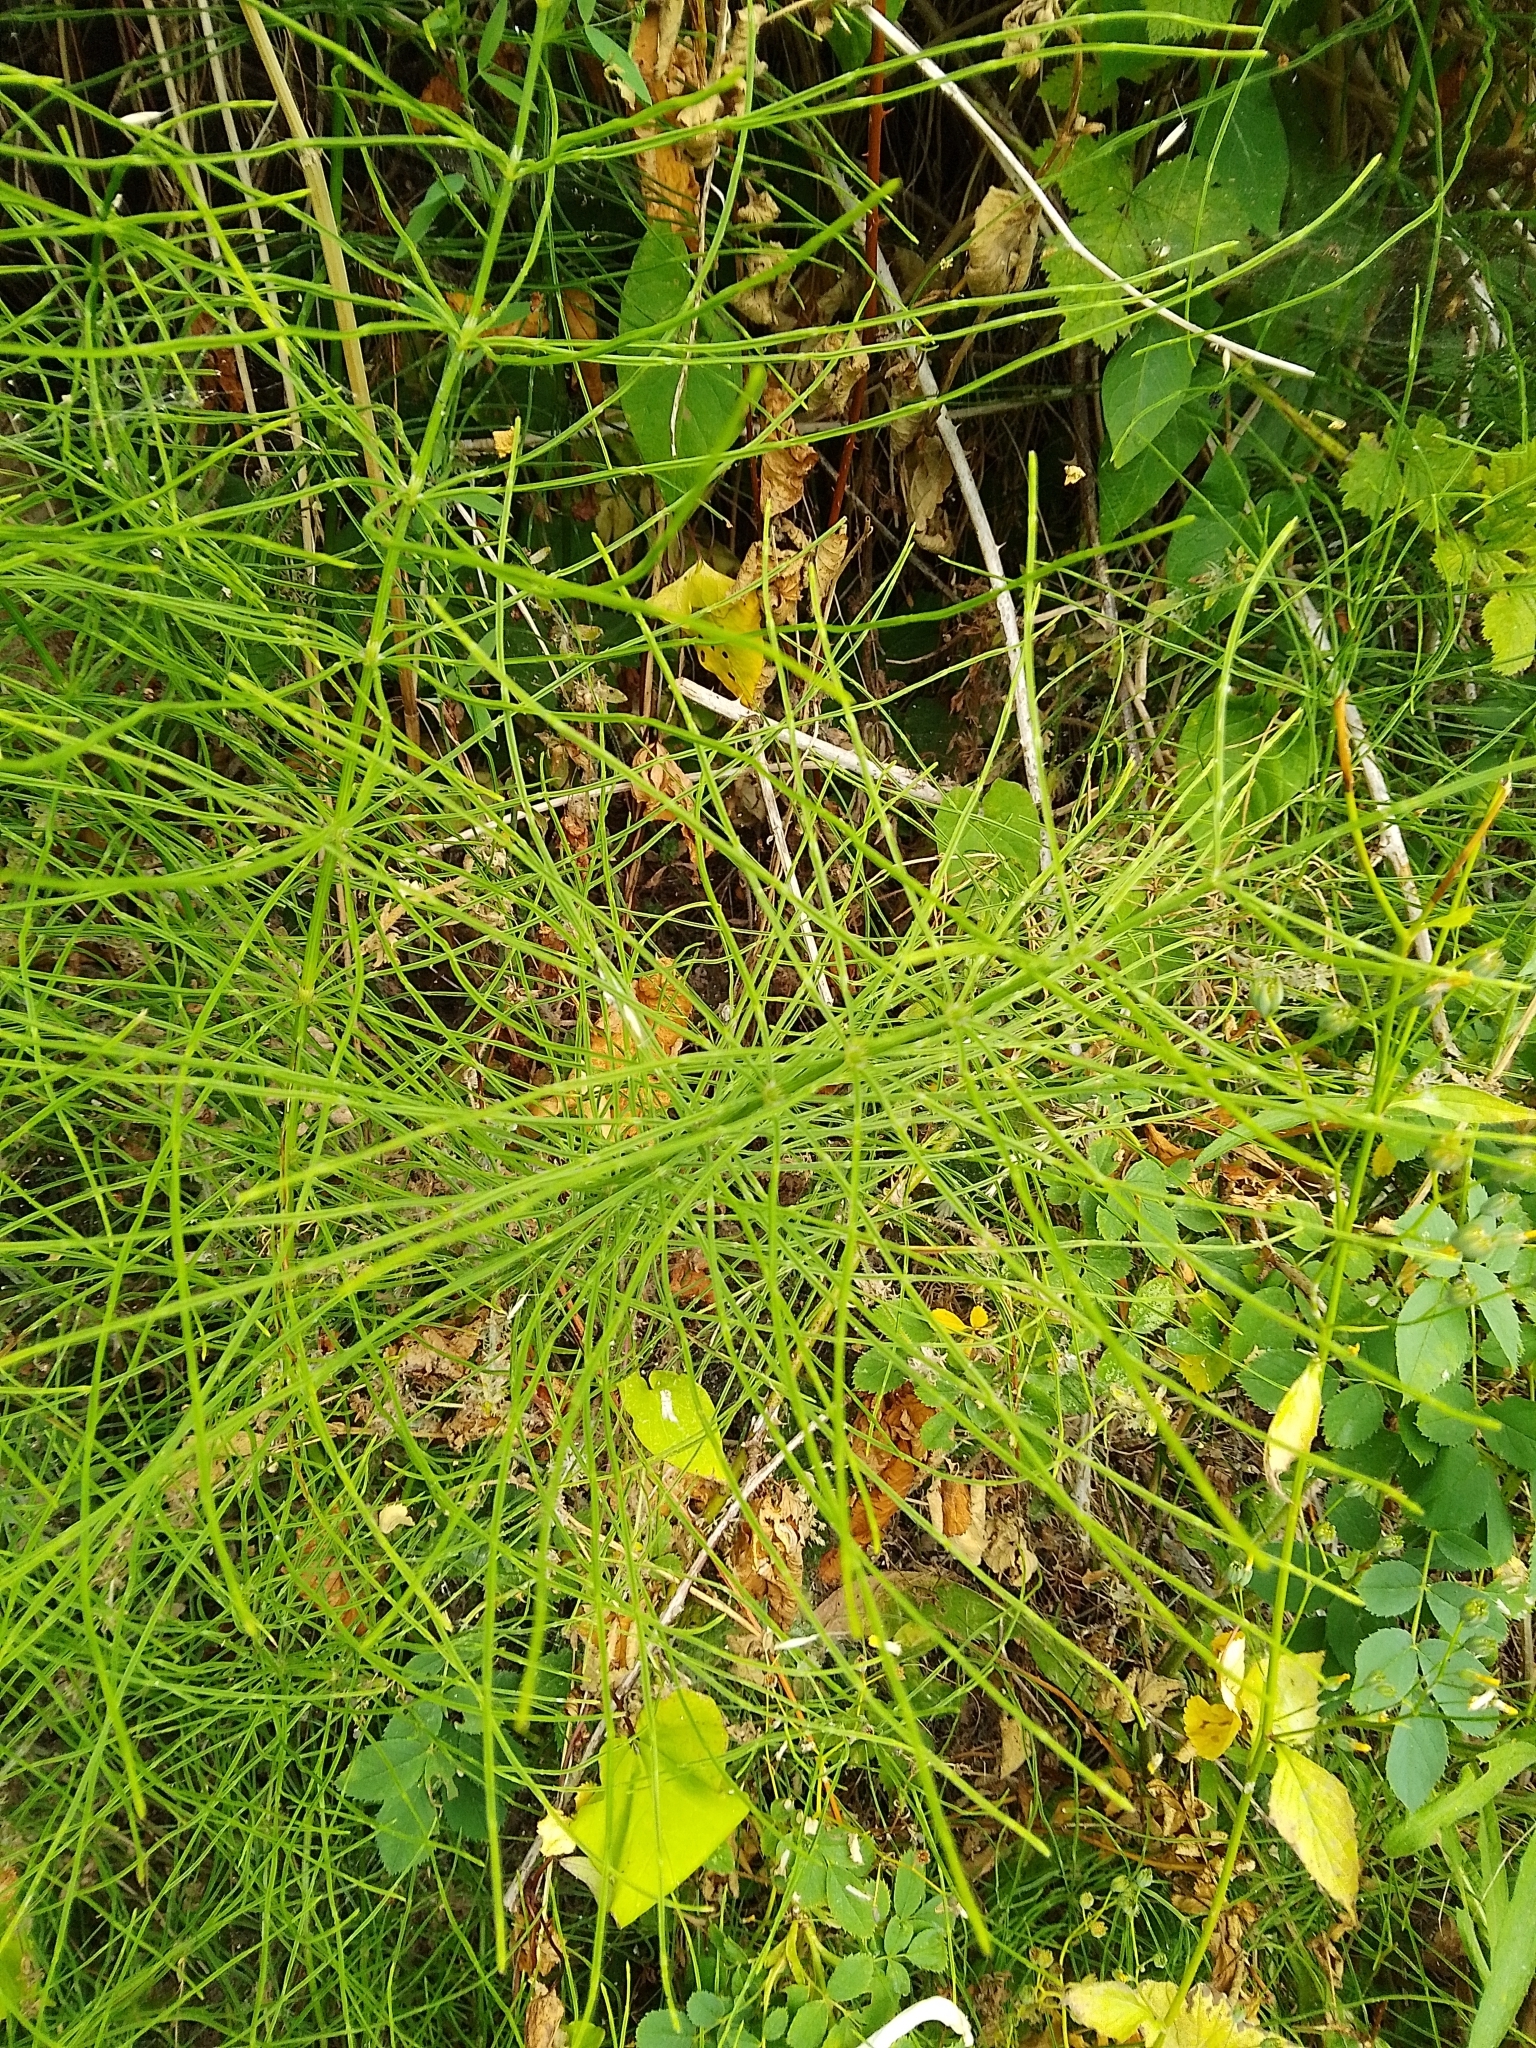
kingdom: Plantae
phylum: Tracheophyta
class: Polypodiopsida
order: Equisetales
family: Equisetaceae
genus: Equisetum
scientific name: Equisetum arvense
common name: Field horsetail
